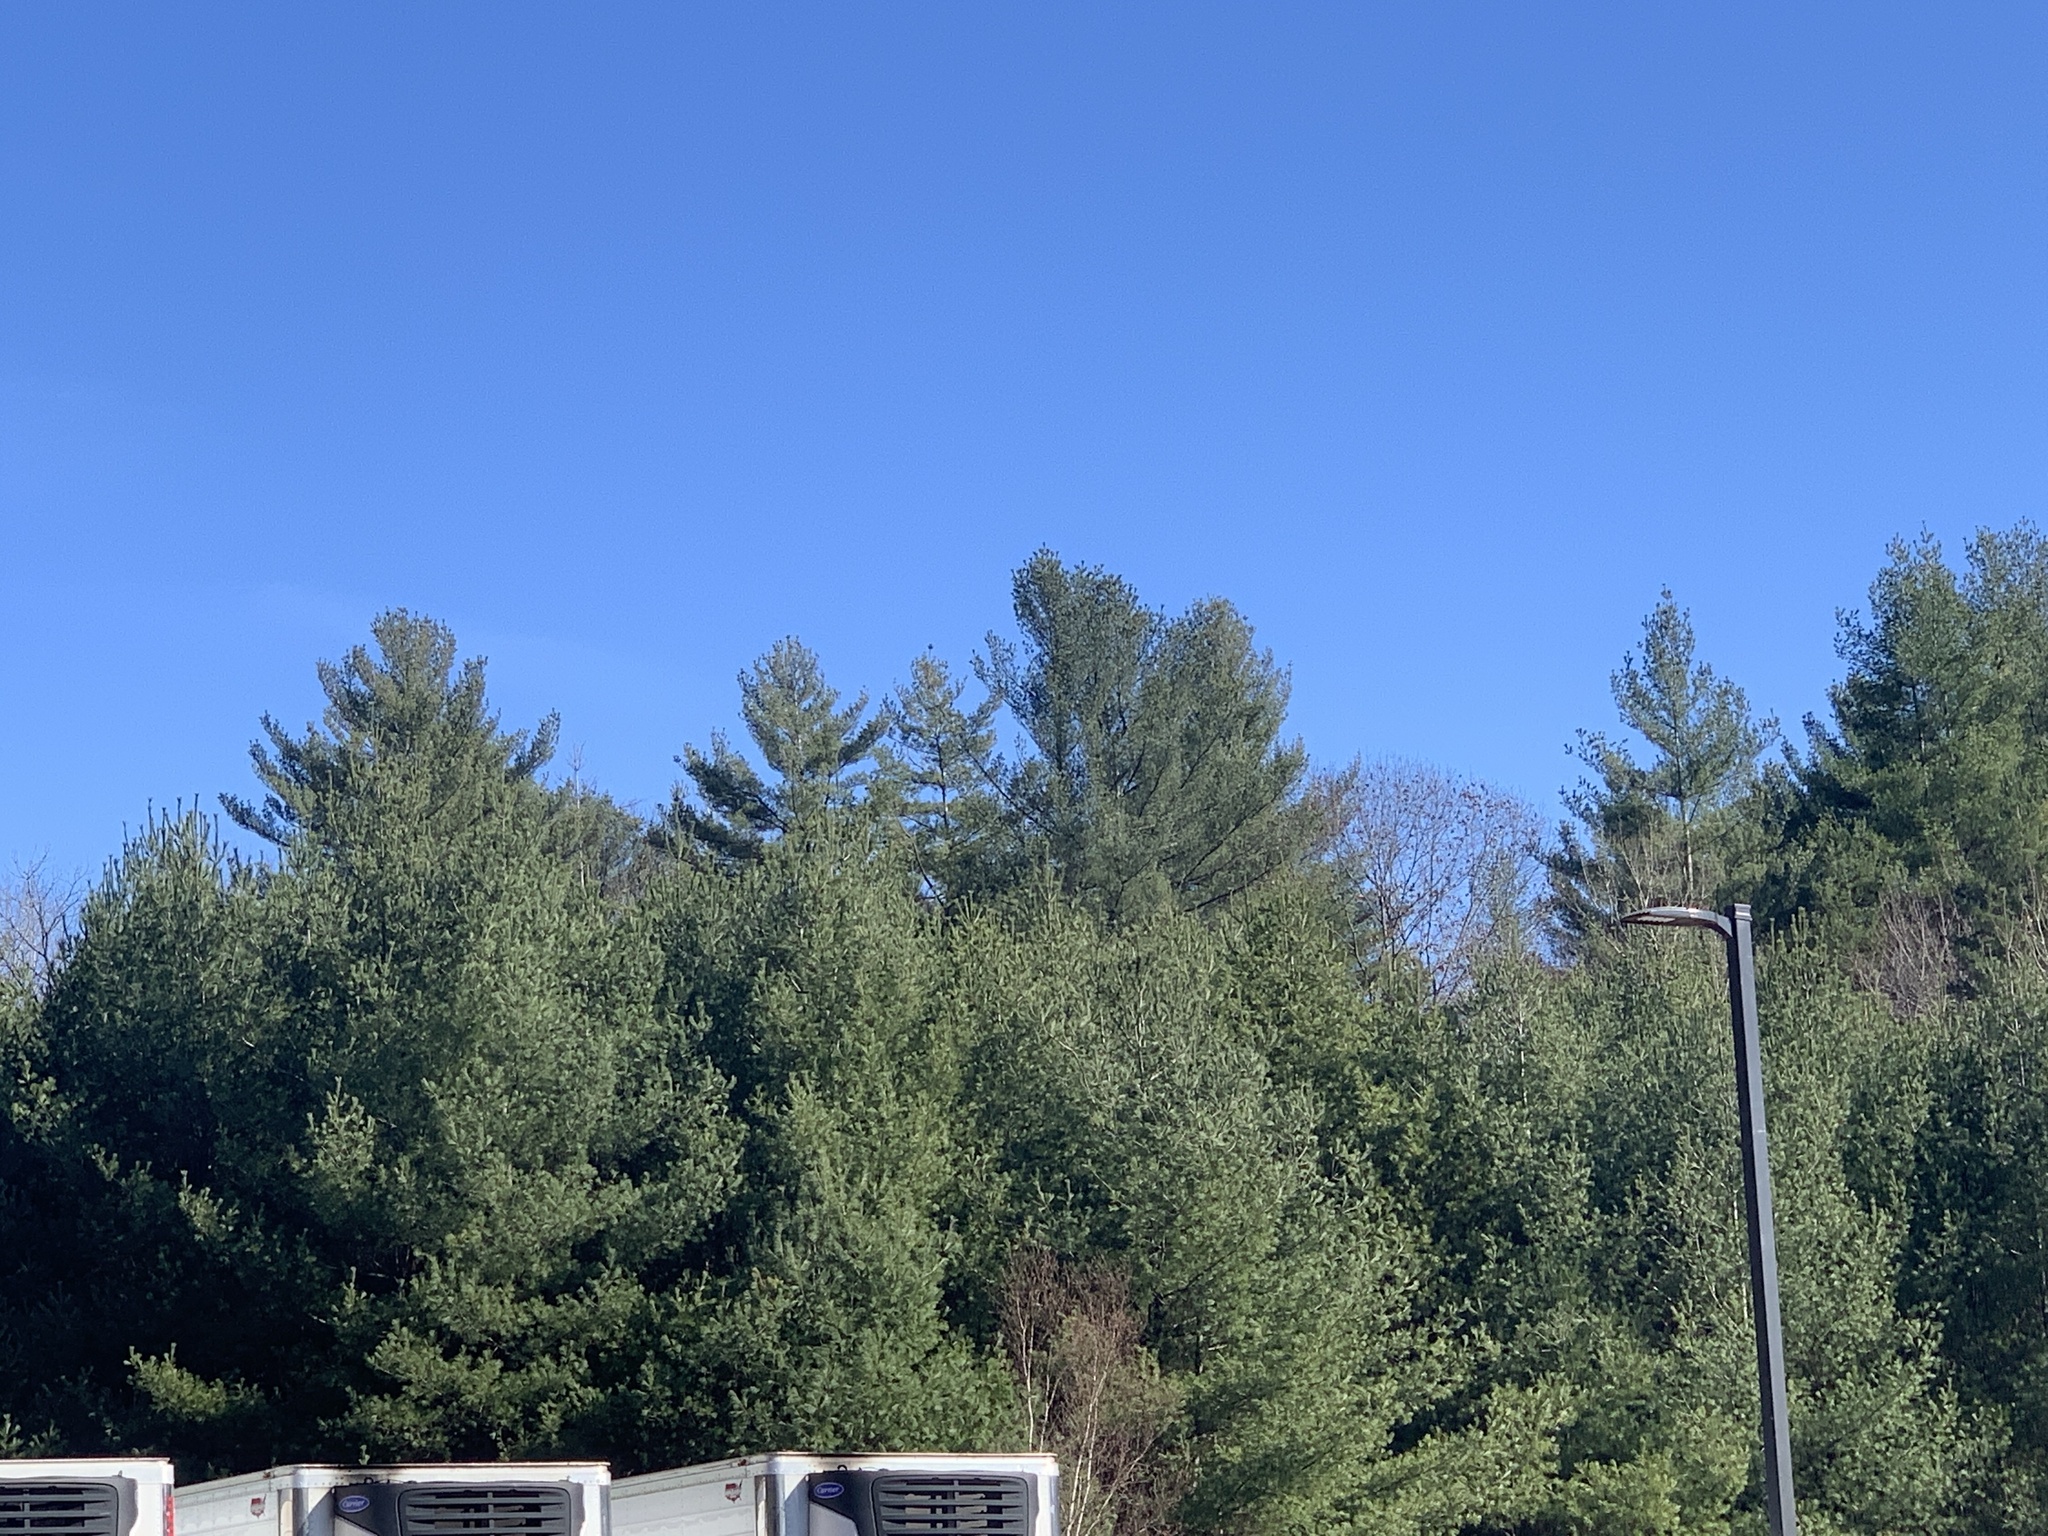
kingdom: Plantae
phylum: Tracheophyta
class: Pinopsida
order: Pinales
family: Pinaceae
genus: Pinus
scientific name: Pinus strobus
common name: Weymouth pine
